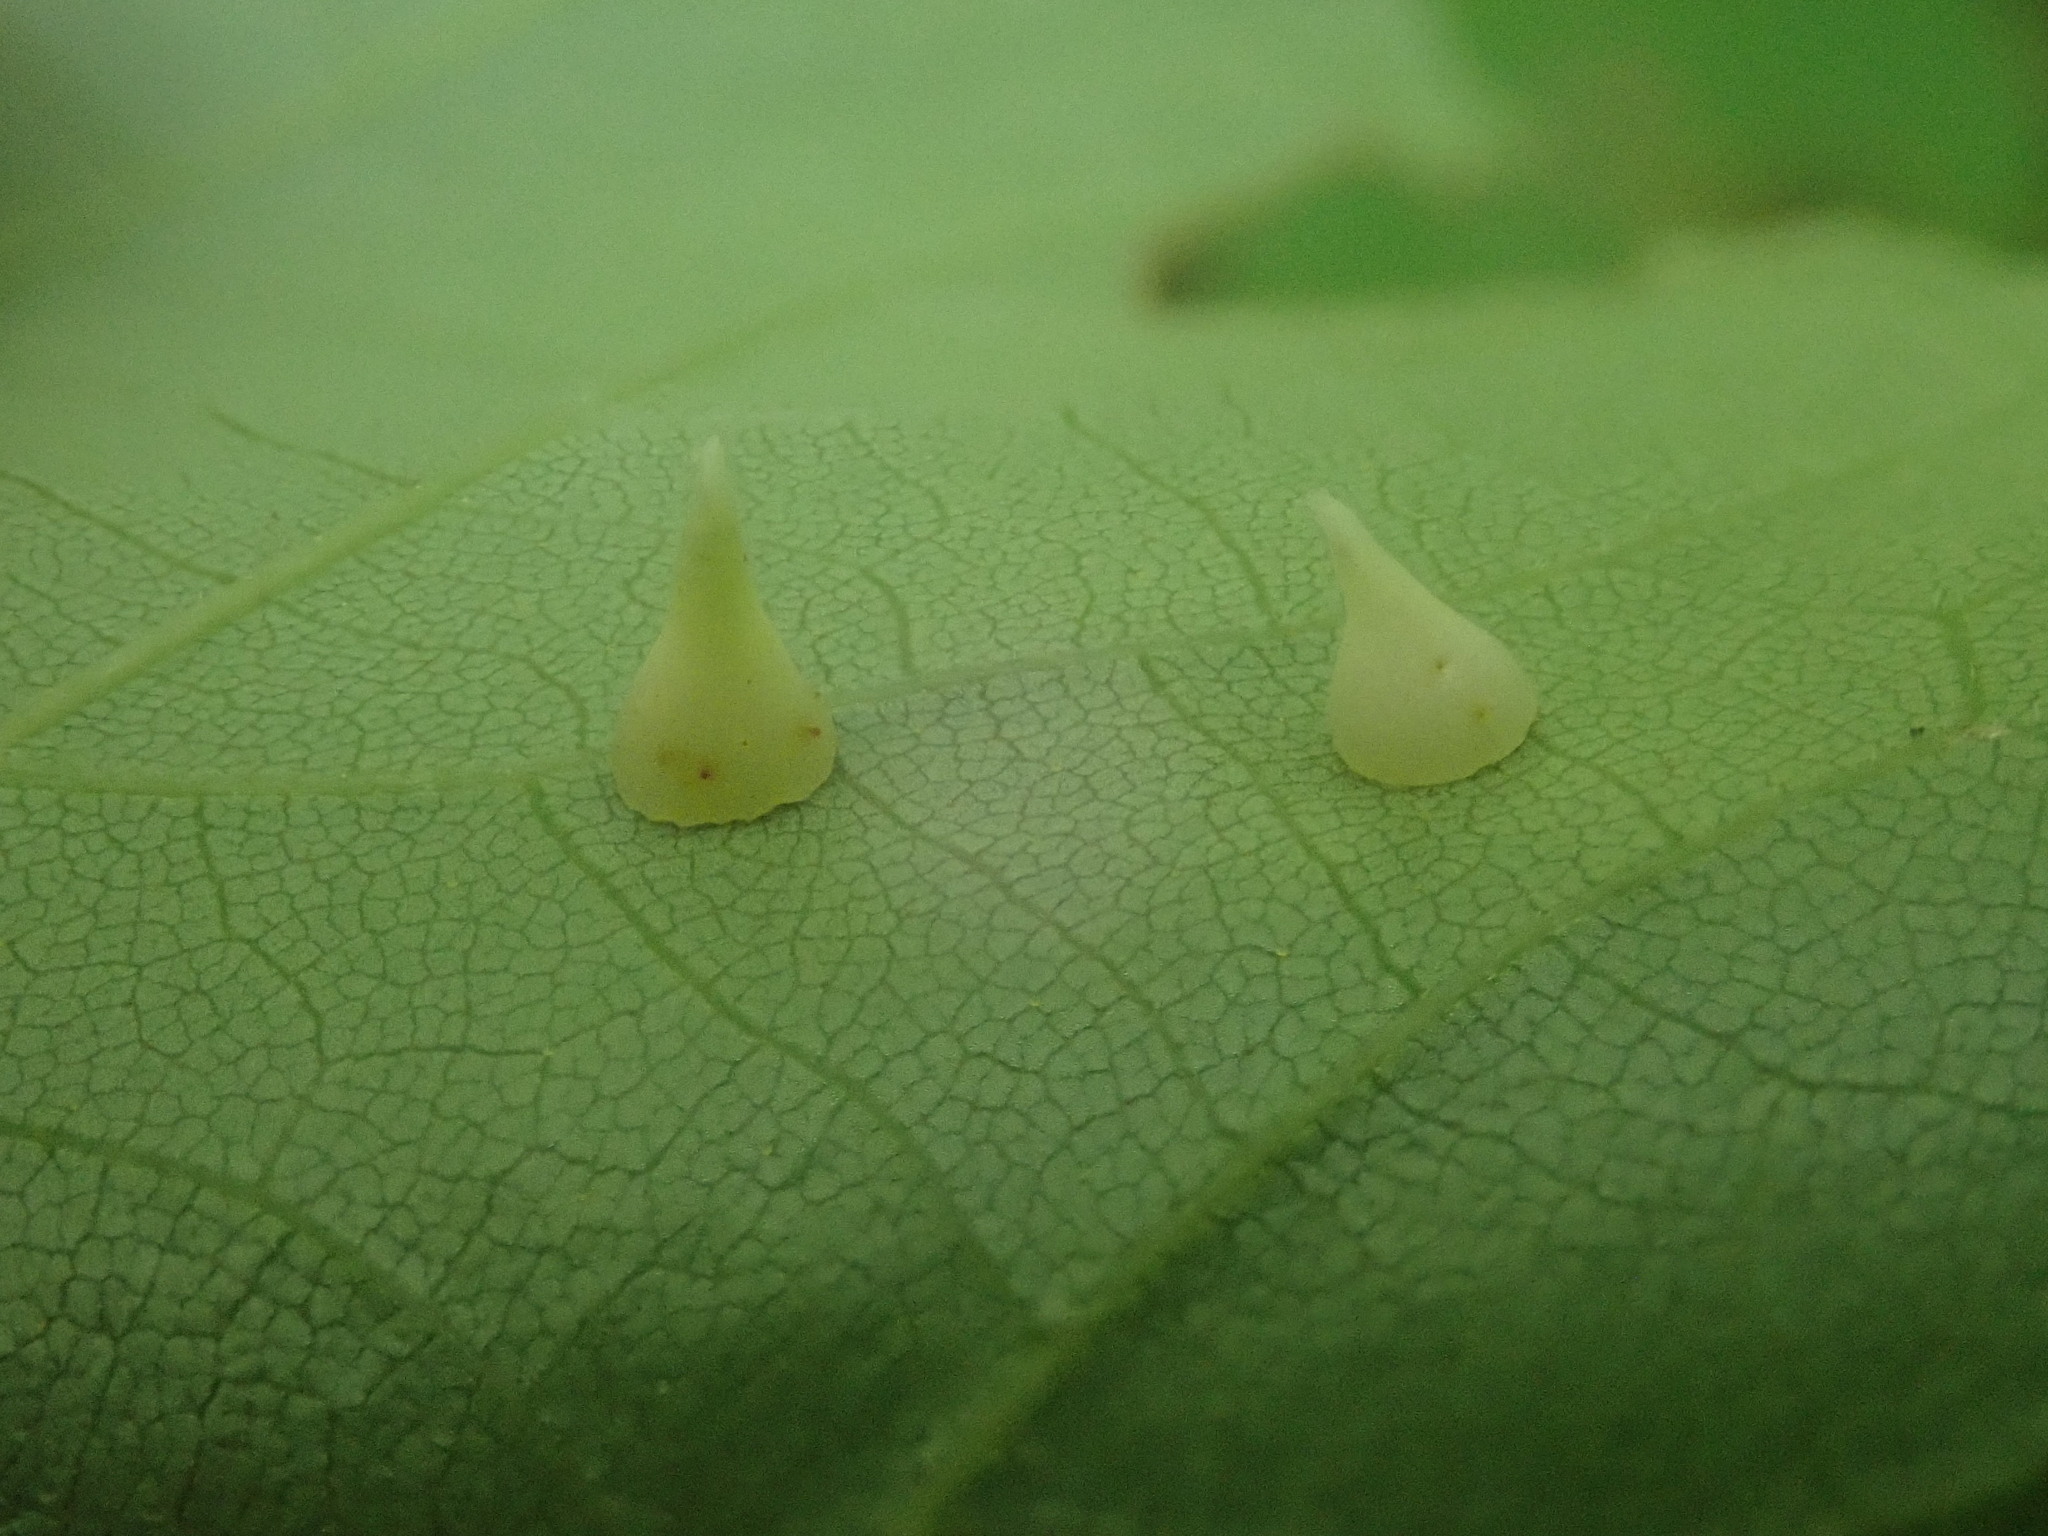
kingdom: Animalia
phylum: Arthropoda
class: Insecta
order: Diptera
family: Cecidomyiidae
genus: Caryomyia
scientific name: Caryomyia sanguinolenta
